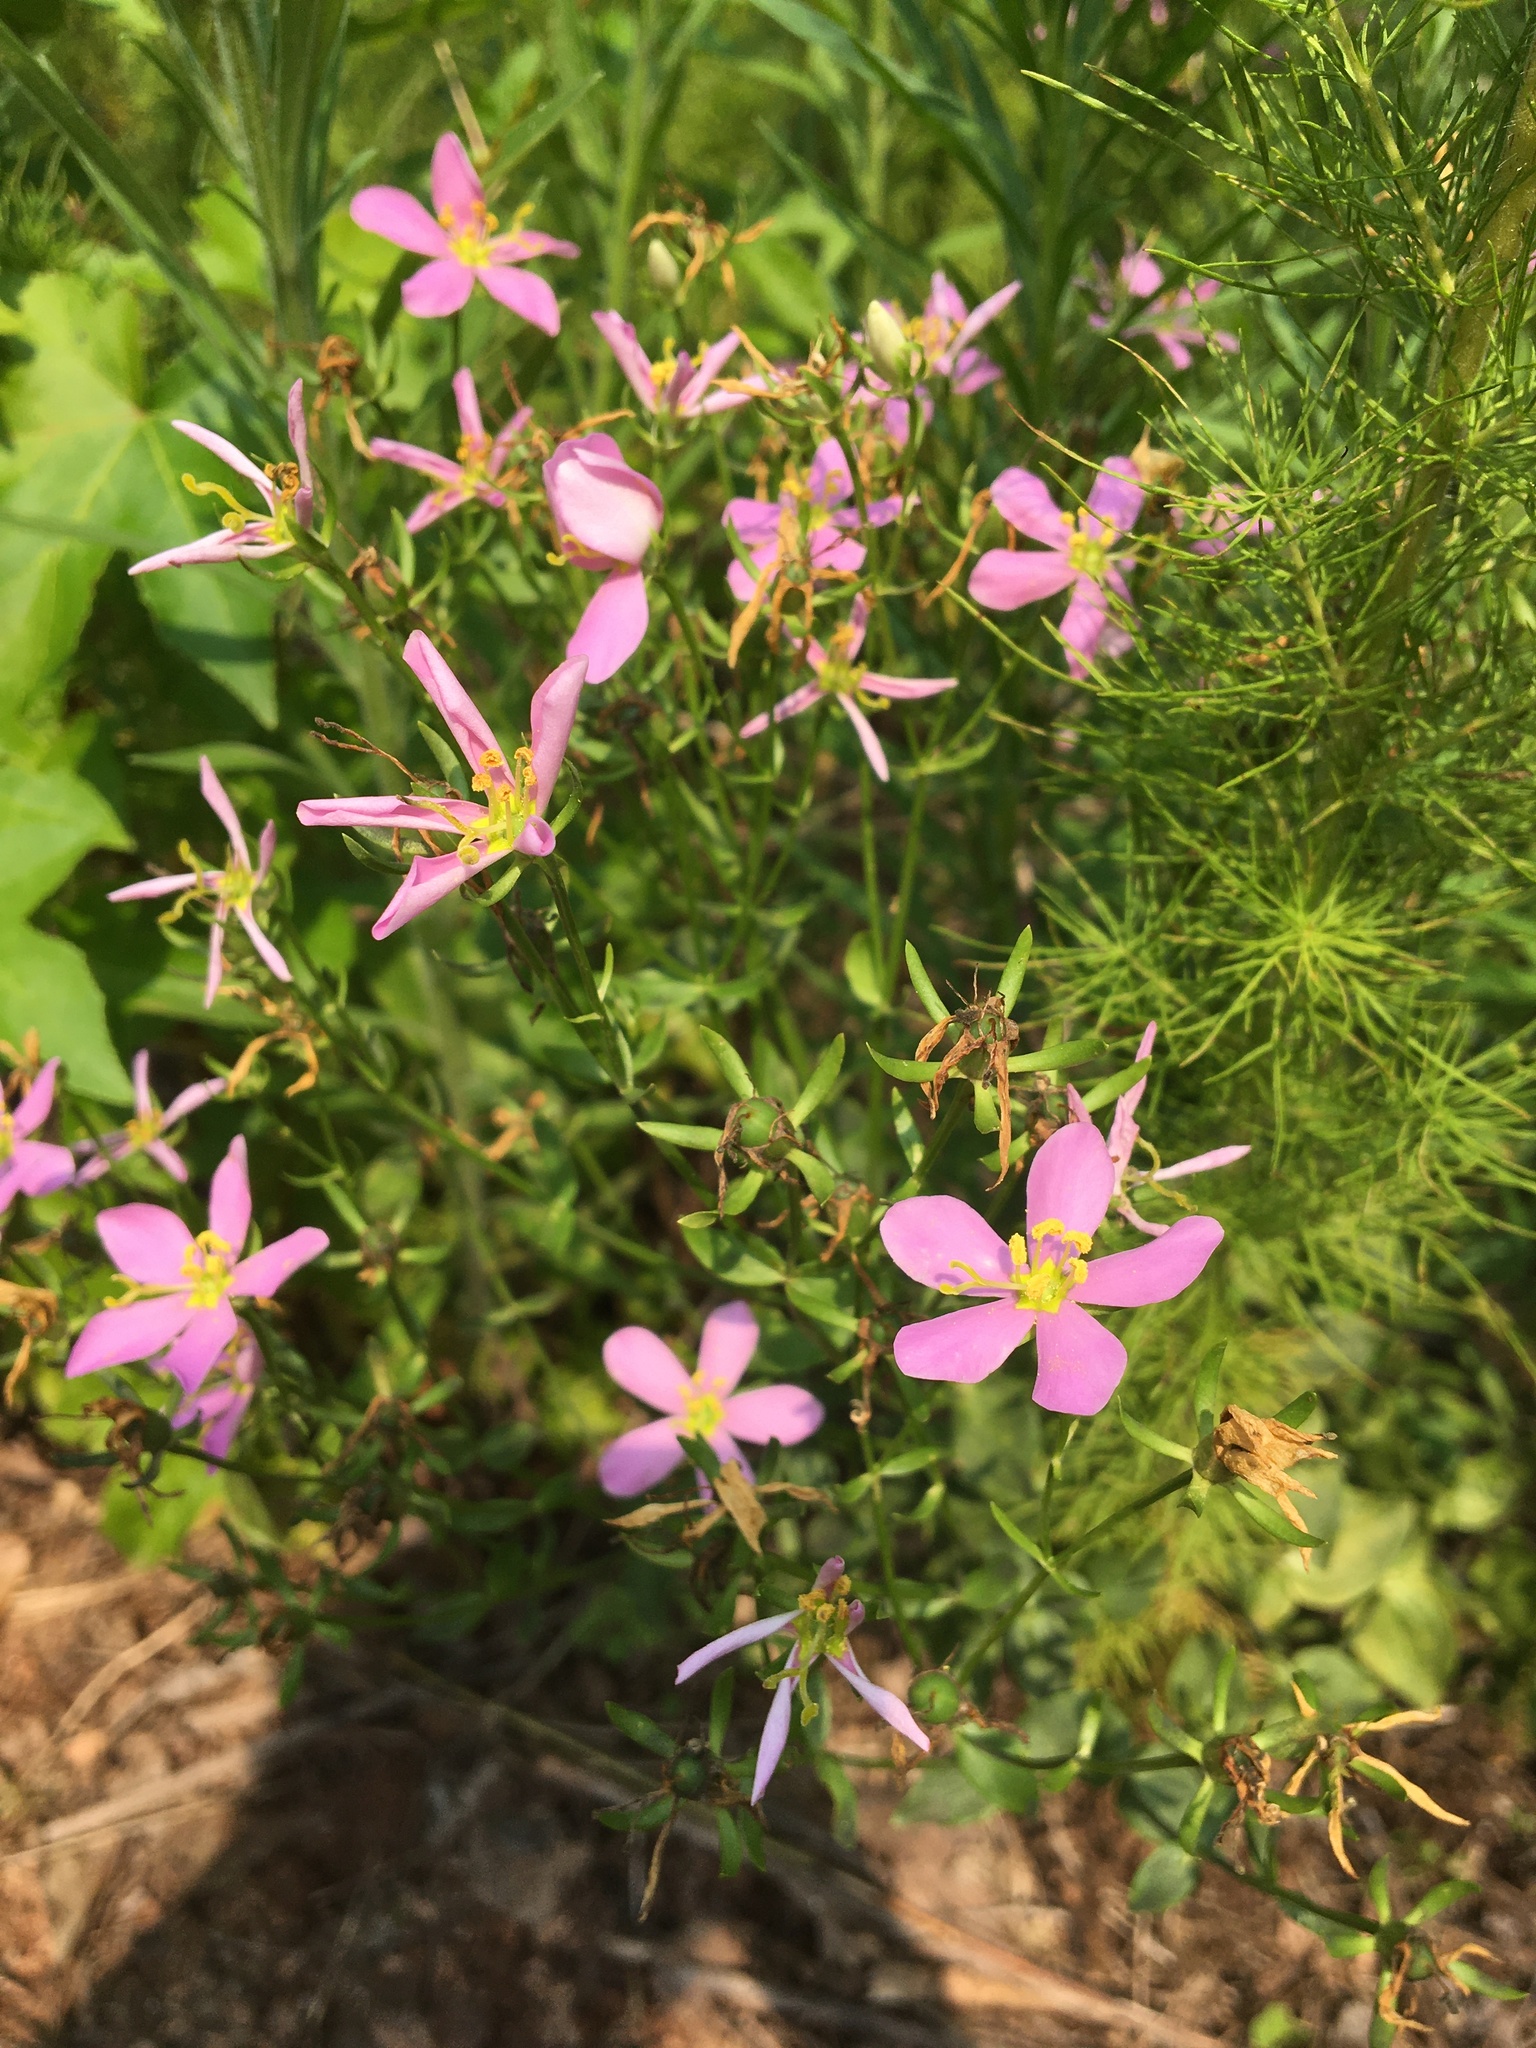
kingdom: Plantae
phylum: Tracheophyta
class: Magnoliopsida
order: Gentianales
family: Gentianaceae
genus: Sabatia
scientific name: Sabatia angularis
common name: Rose-pink
